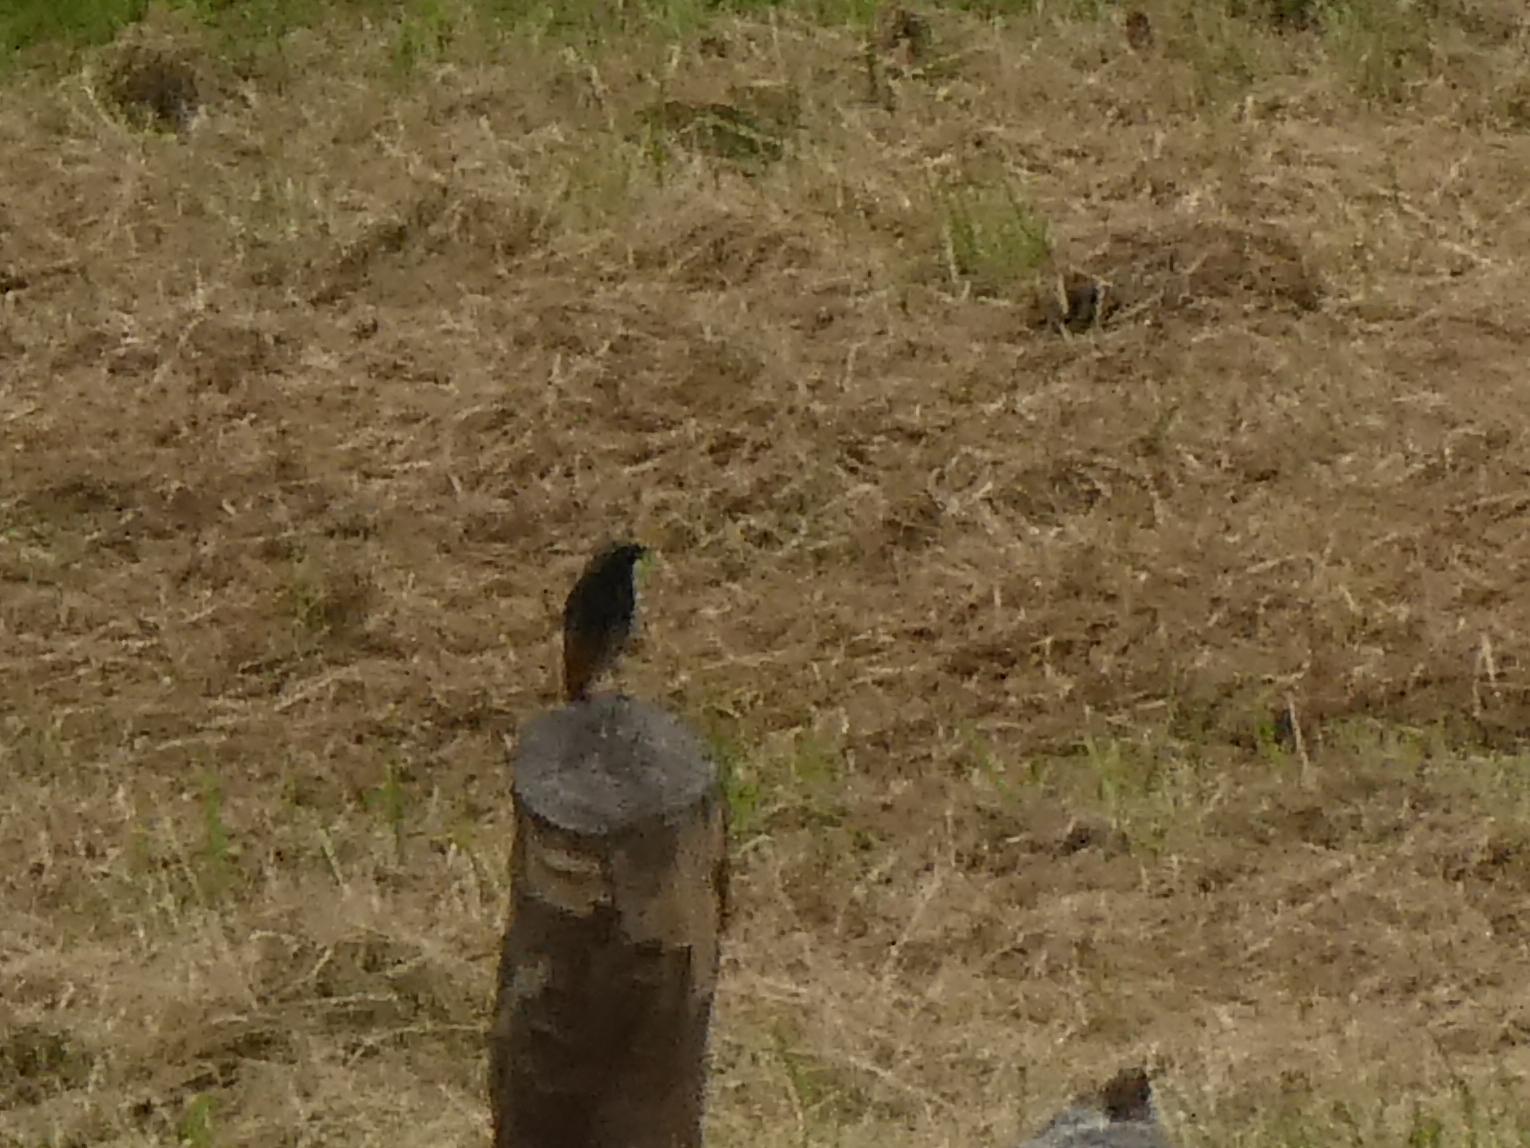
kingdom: Animalia
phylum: Chordata
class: Aves
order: Passeriformes
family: Muscicapidae
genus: Phoenicurus
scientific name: Phoenicurus ochruros
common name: Black redstart
